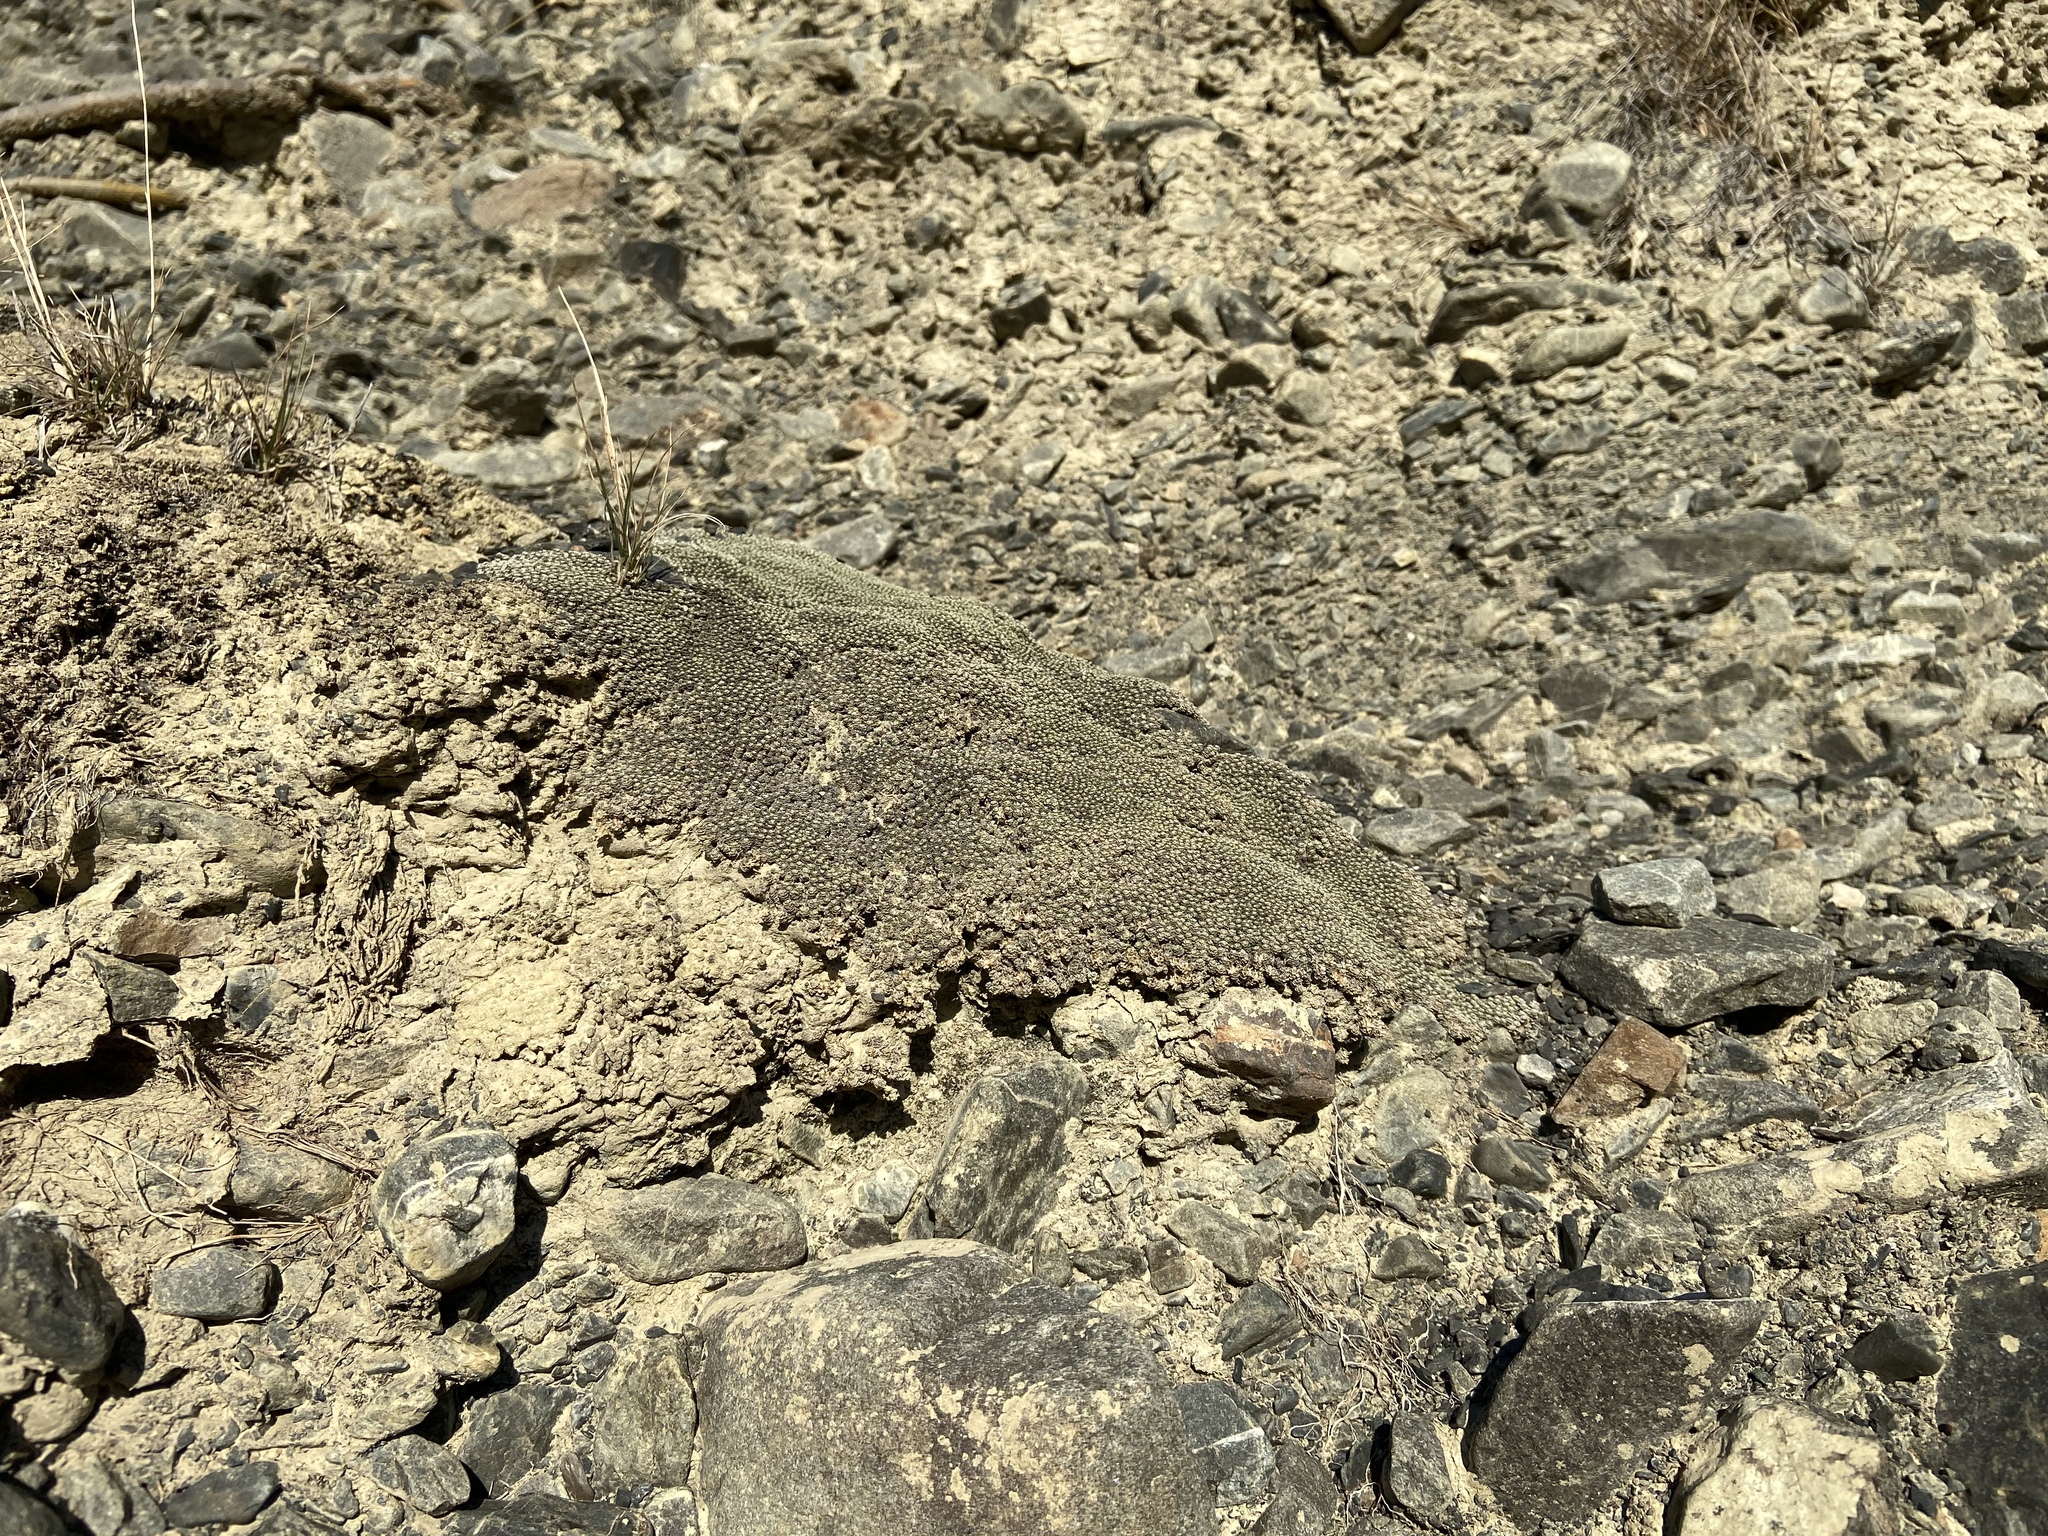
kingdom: Plantae
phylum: Tracheophyta
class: Magnoliopsida
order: Asterales
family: Asteraceae
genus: Raoulia
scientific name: Raoulia australis
